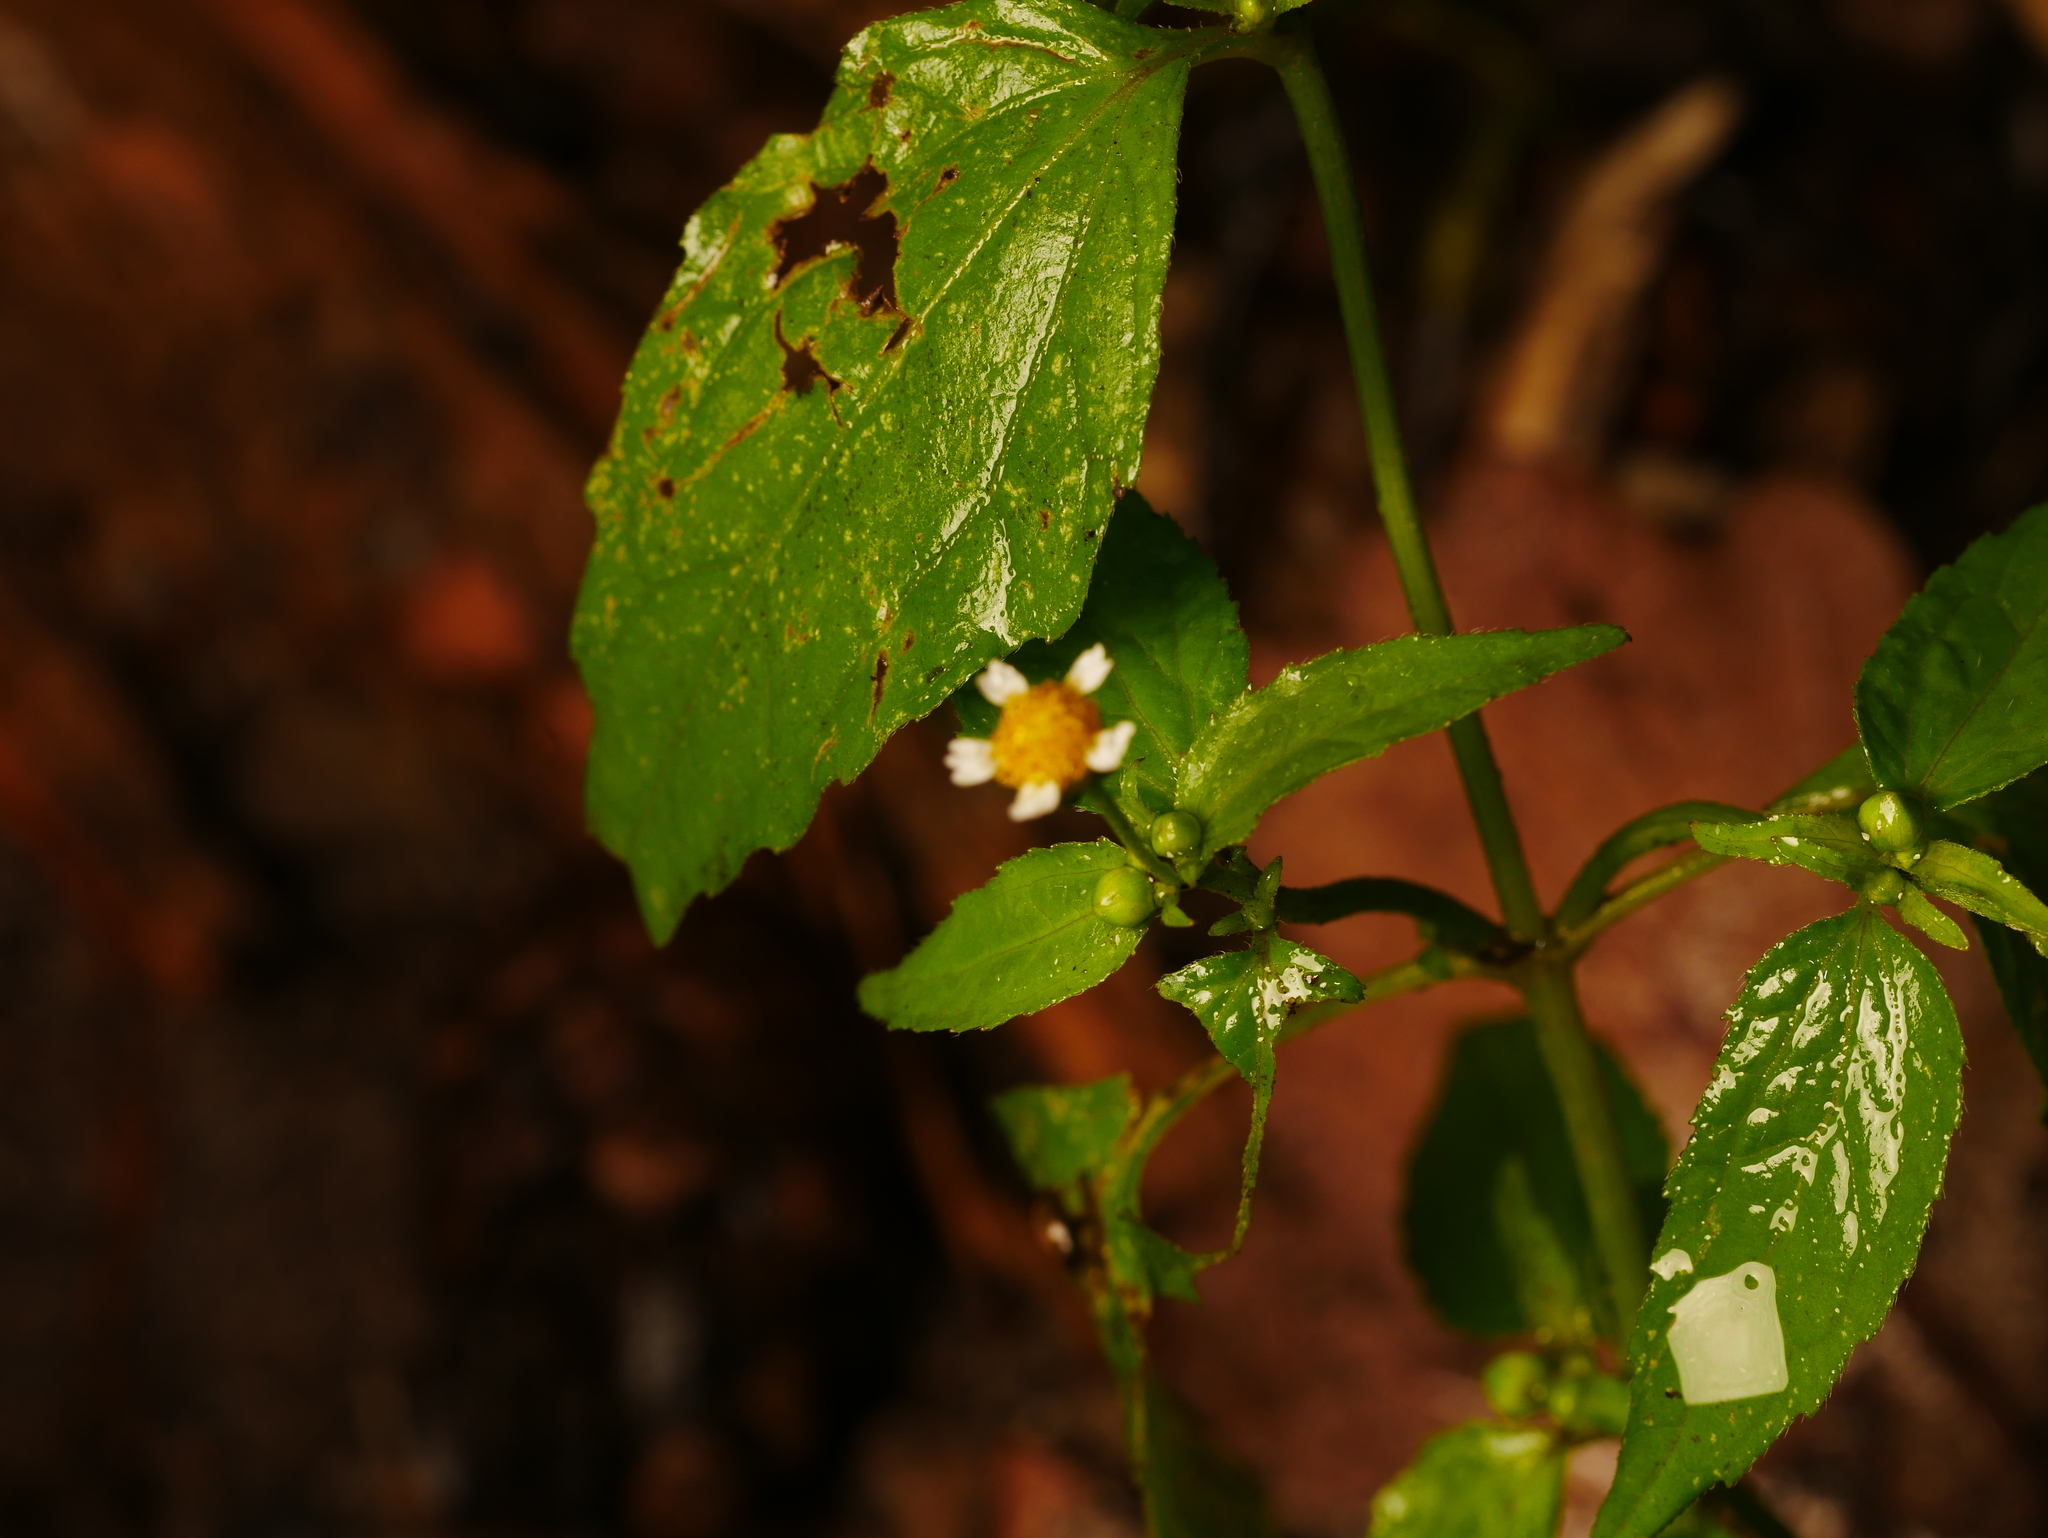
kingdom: Plantae
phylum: Tracheophyta
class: Magnoliopsida
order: Asterales
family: Asteraceae
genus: Galinsoga
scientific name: Galinsoga parviflora
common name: Gallant soldier
